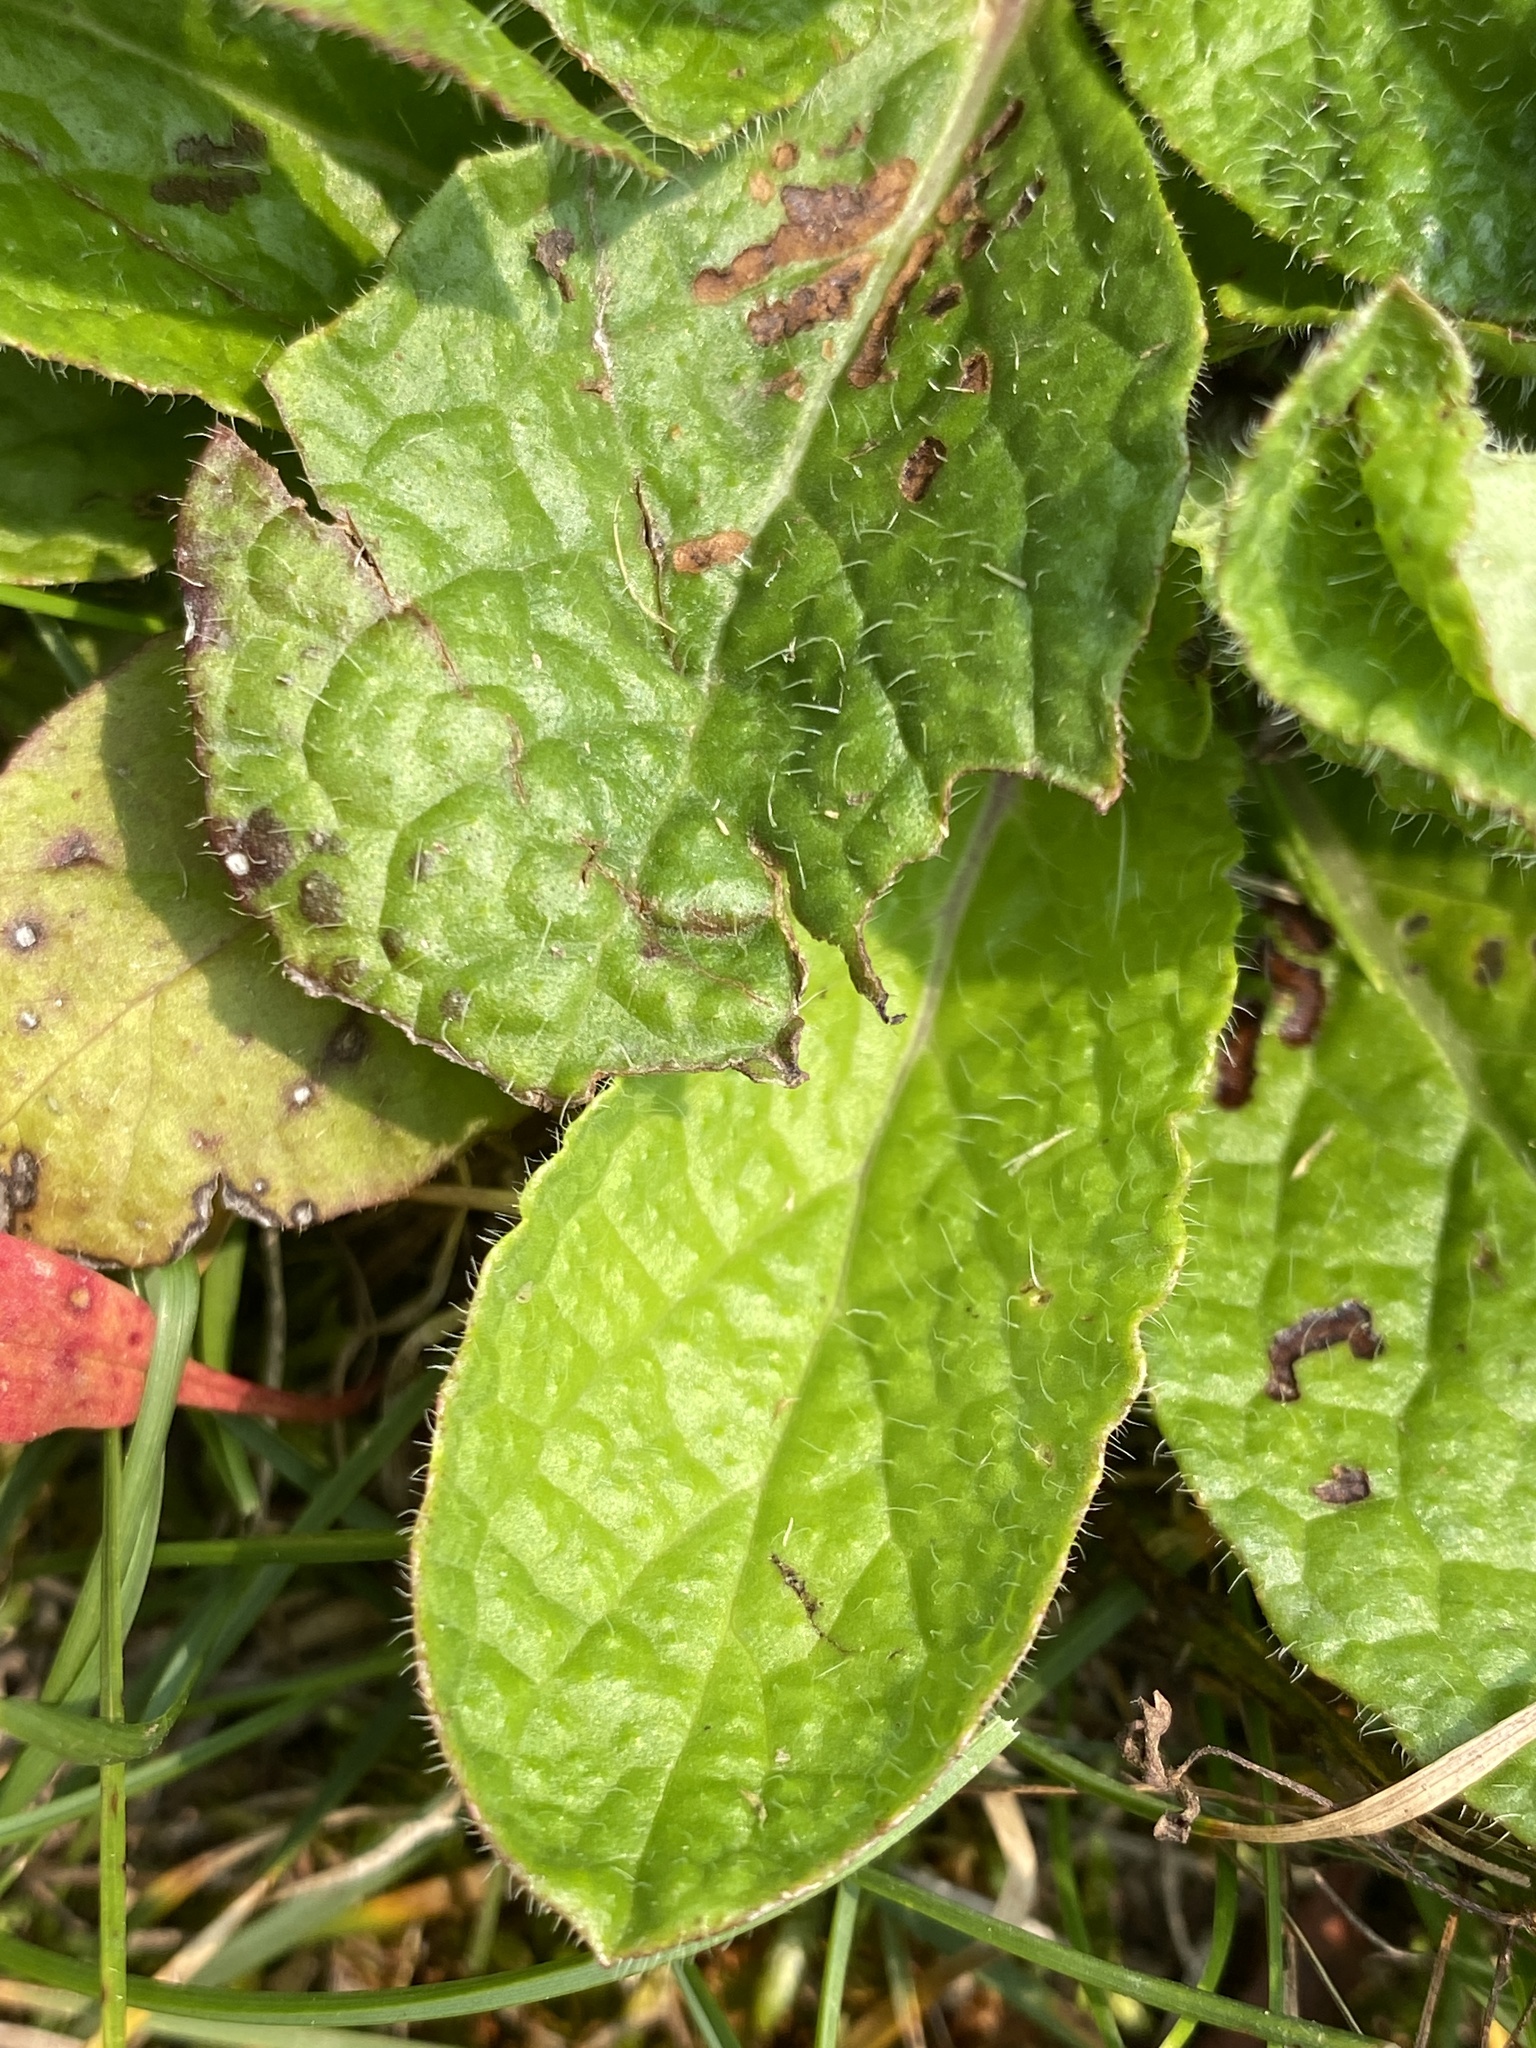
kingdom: Plantae
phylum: Tracheophyta
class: Magnoliopsida
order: Lamiales
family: Lamiaceae
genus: Salvia
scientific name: Salvia lyrata
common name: Cancerweed
